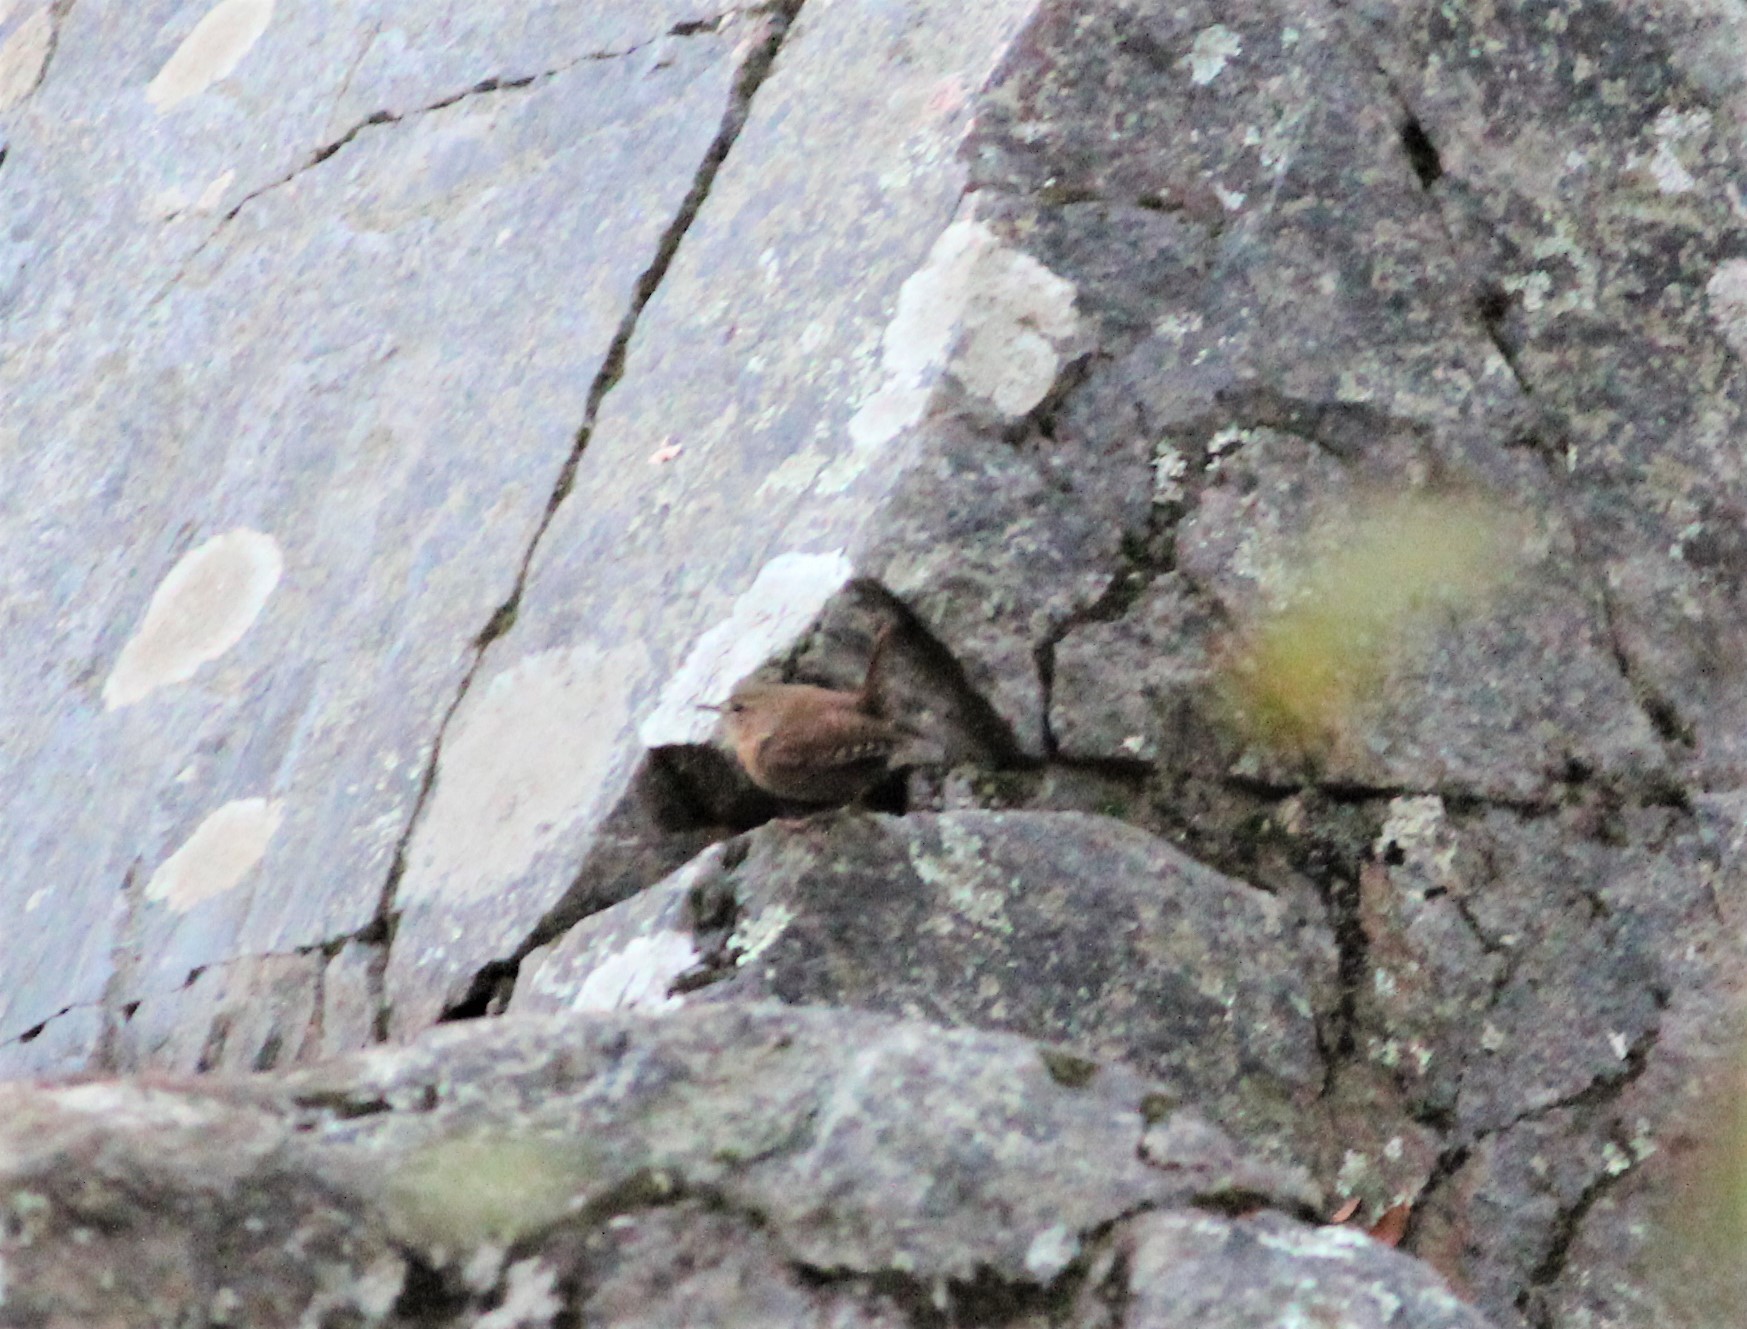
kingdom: Animalia
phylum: Chordata
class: Aves
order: Passeriformes
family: Troglodytidae
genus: Troglodytes
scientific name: Troglodytes hiemalis
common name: Winter wren
